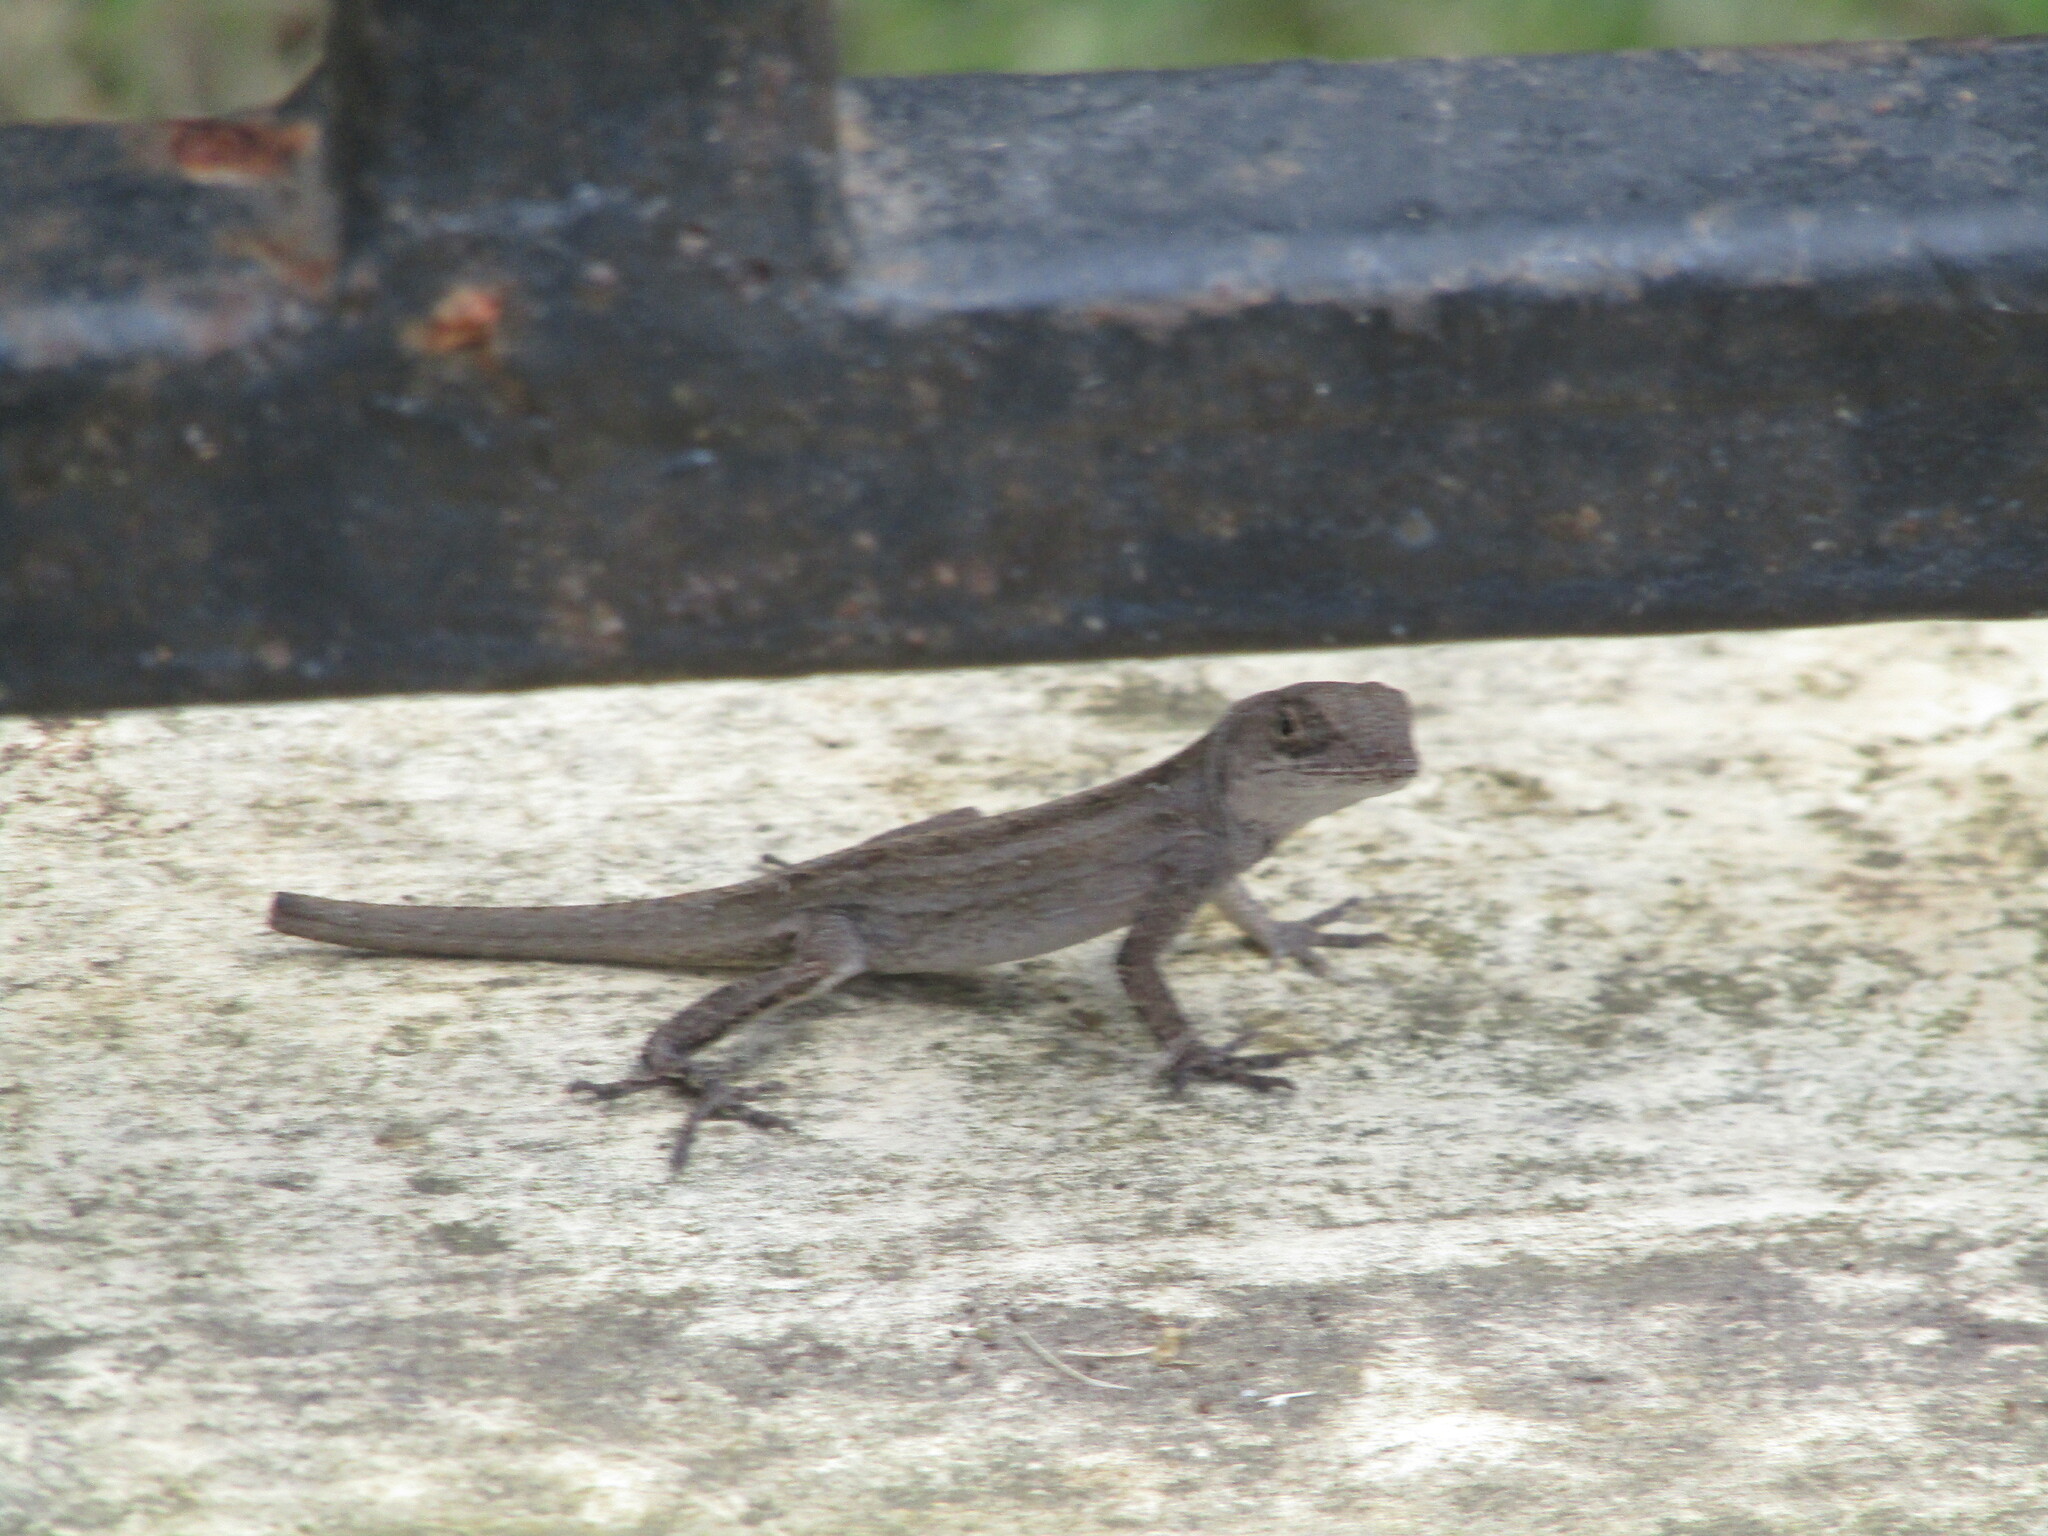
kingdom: Animalia
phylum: Chordata
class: Squamata
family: Dactyloidae
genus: Anolis
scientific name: Anolis sagrei
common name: Brown anole
